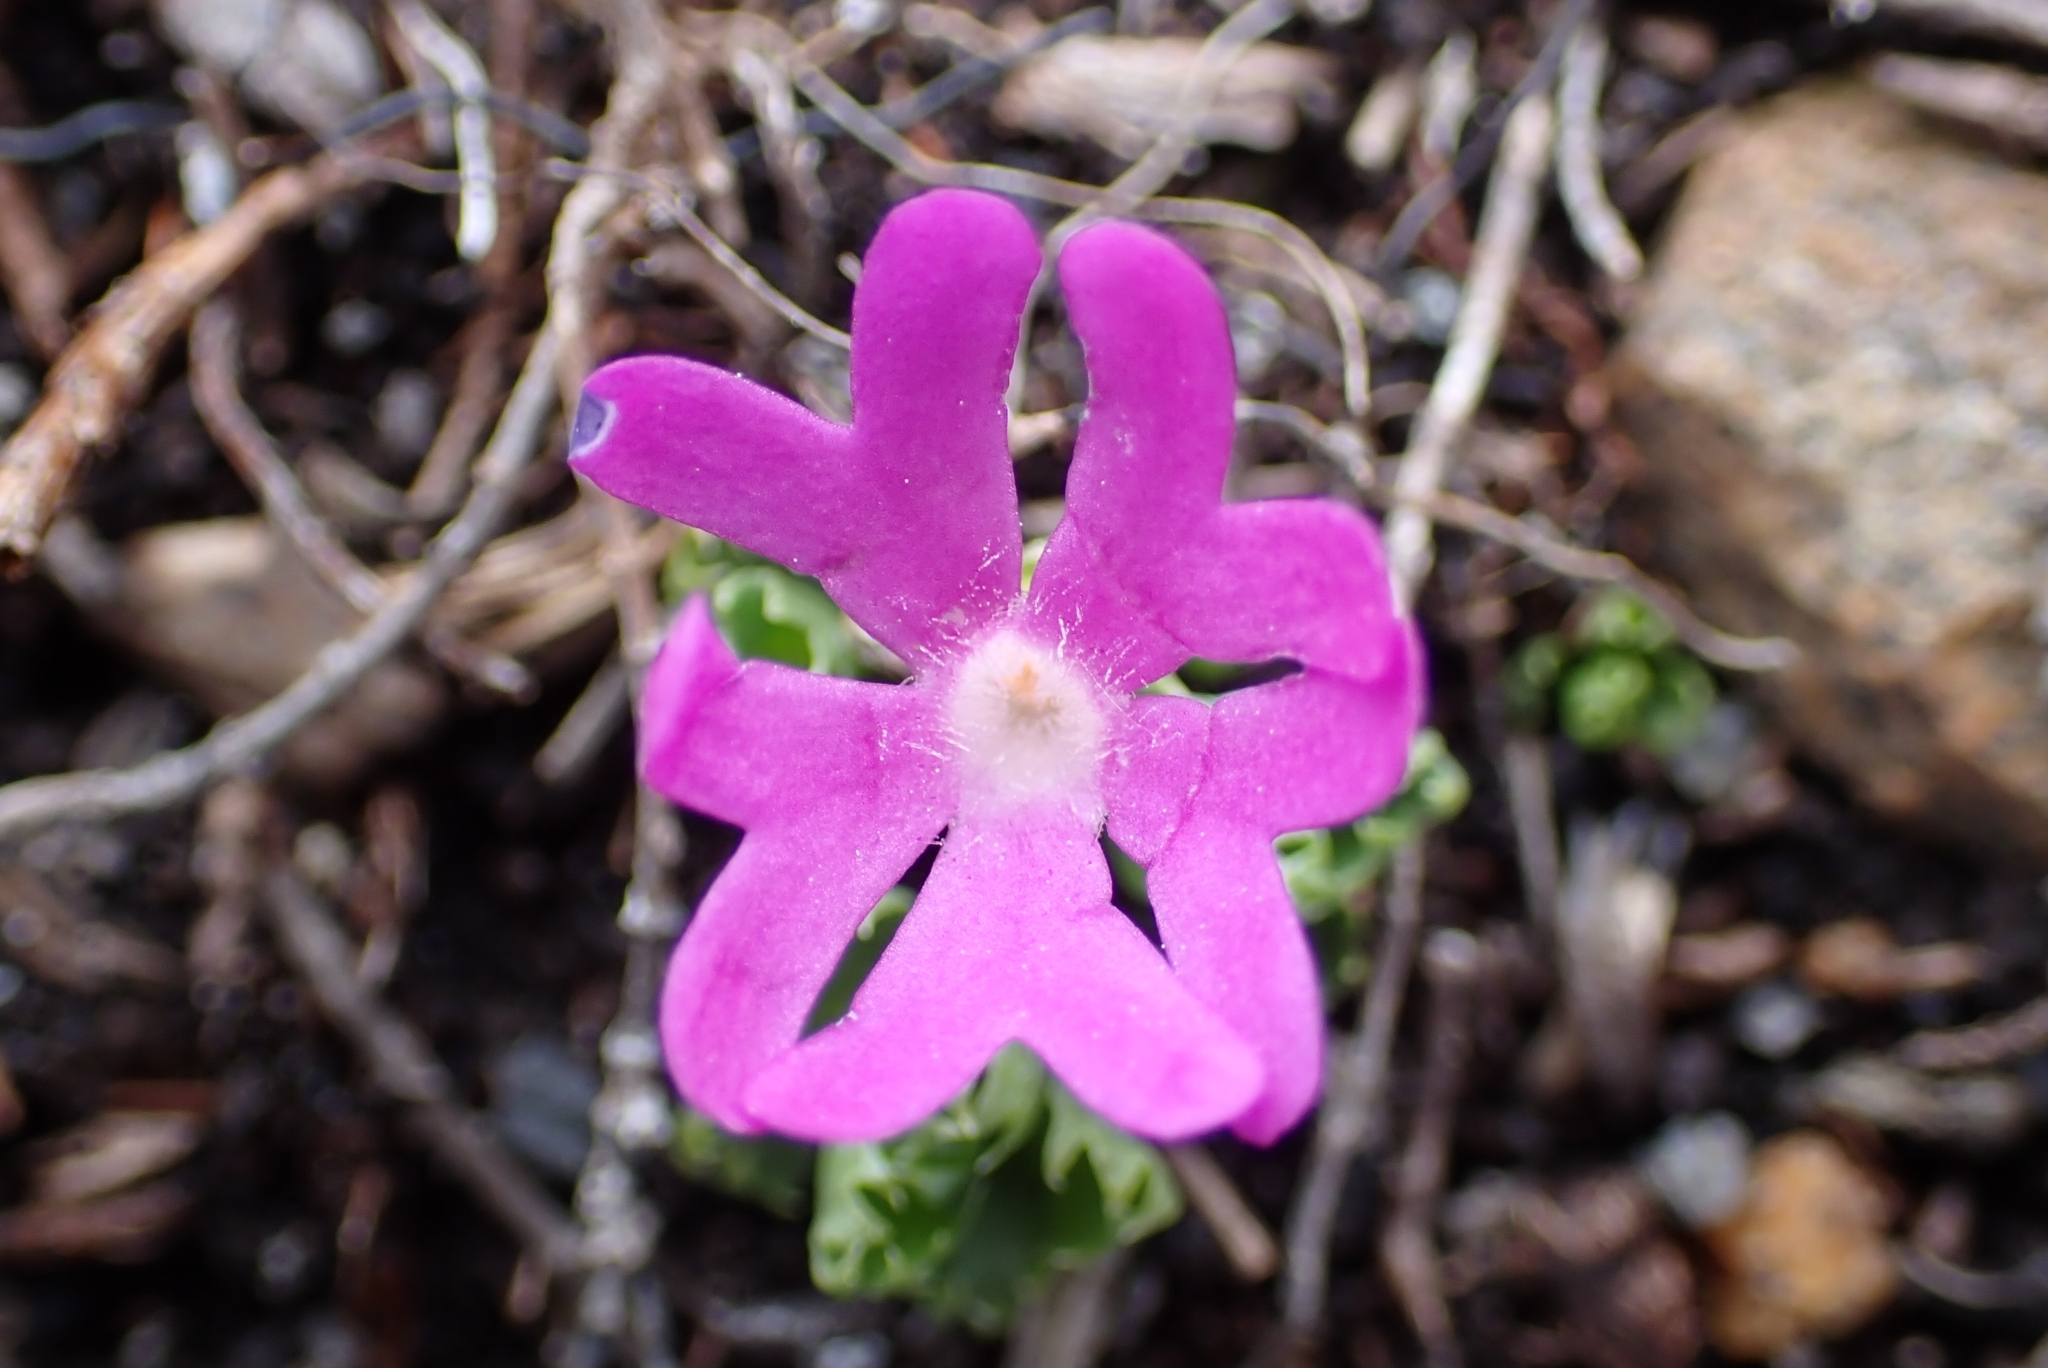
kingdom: Plantae
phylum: Tracheophyta
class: Magnoliopsida
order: Ericales
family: Primulaceae
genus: Primula
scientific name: Primula minima
